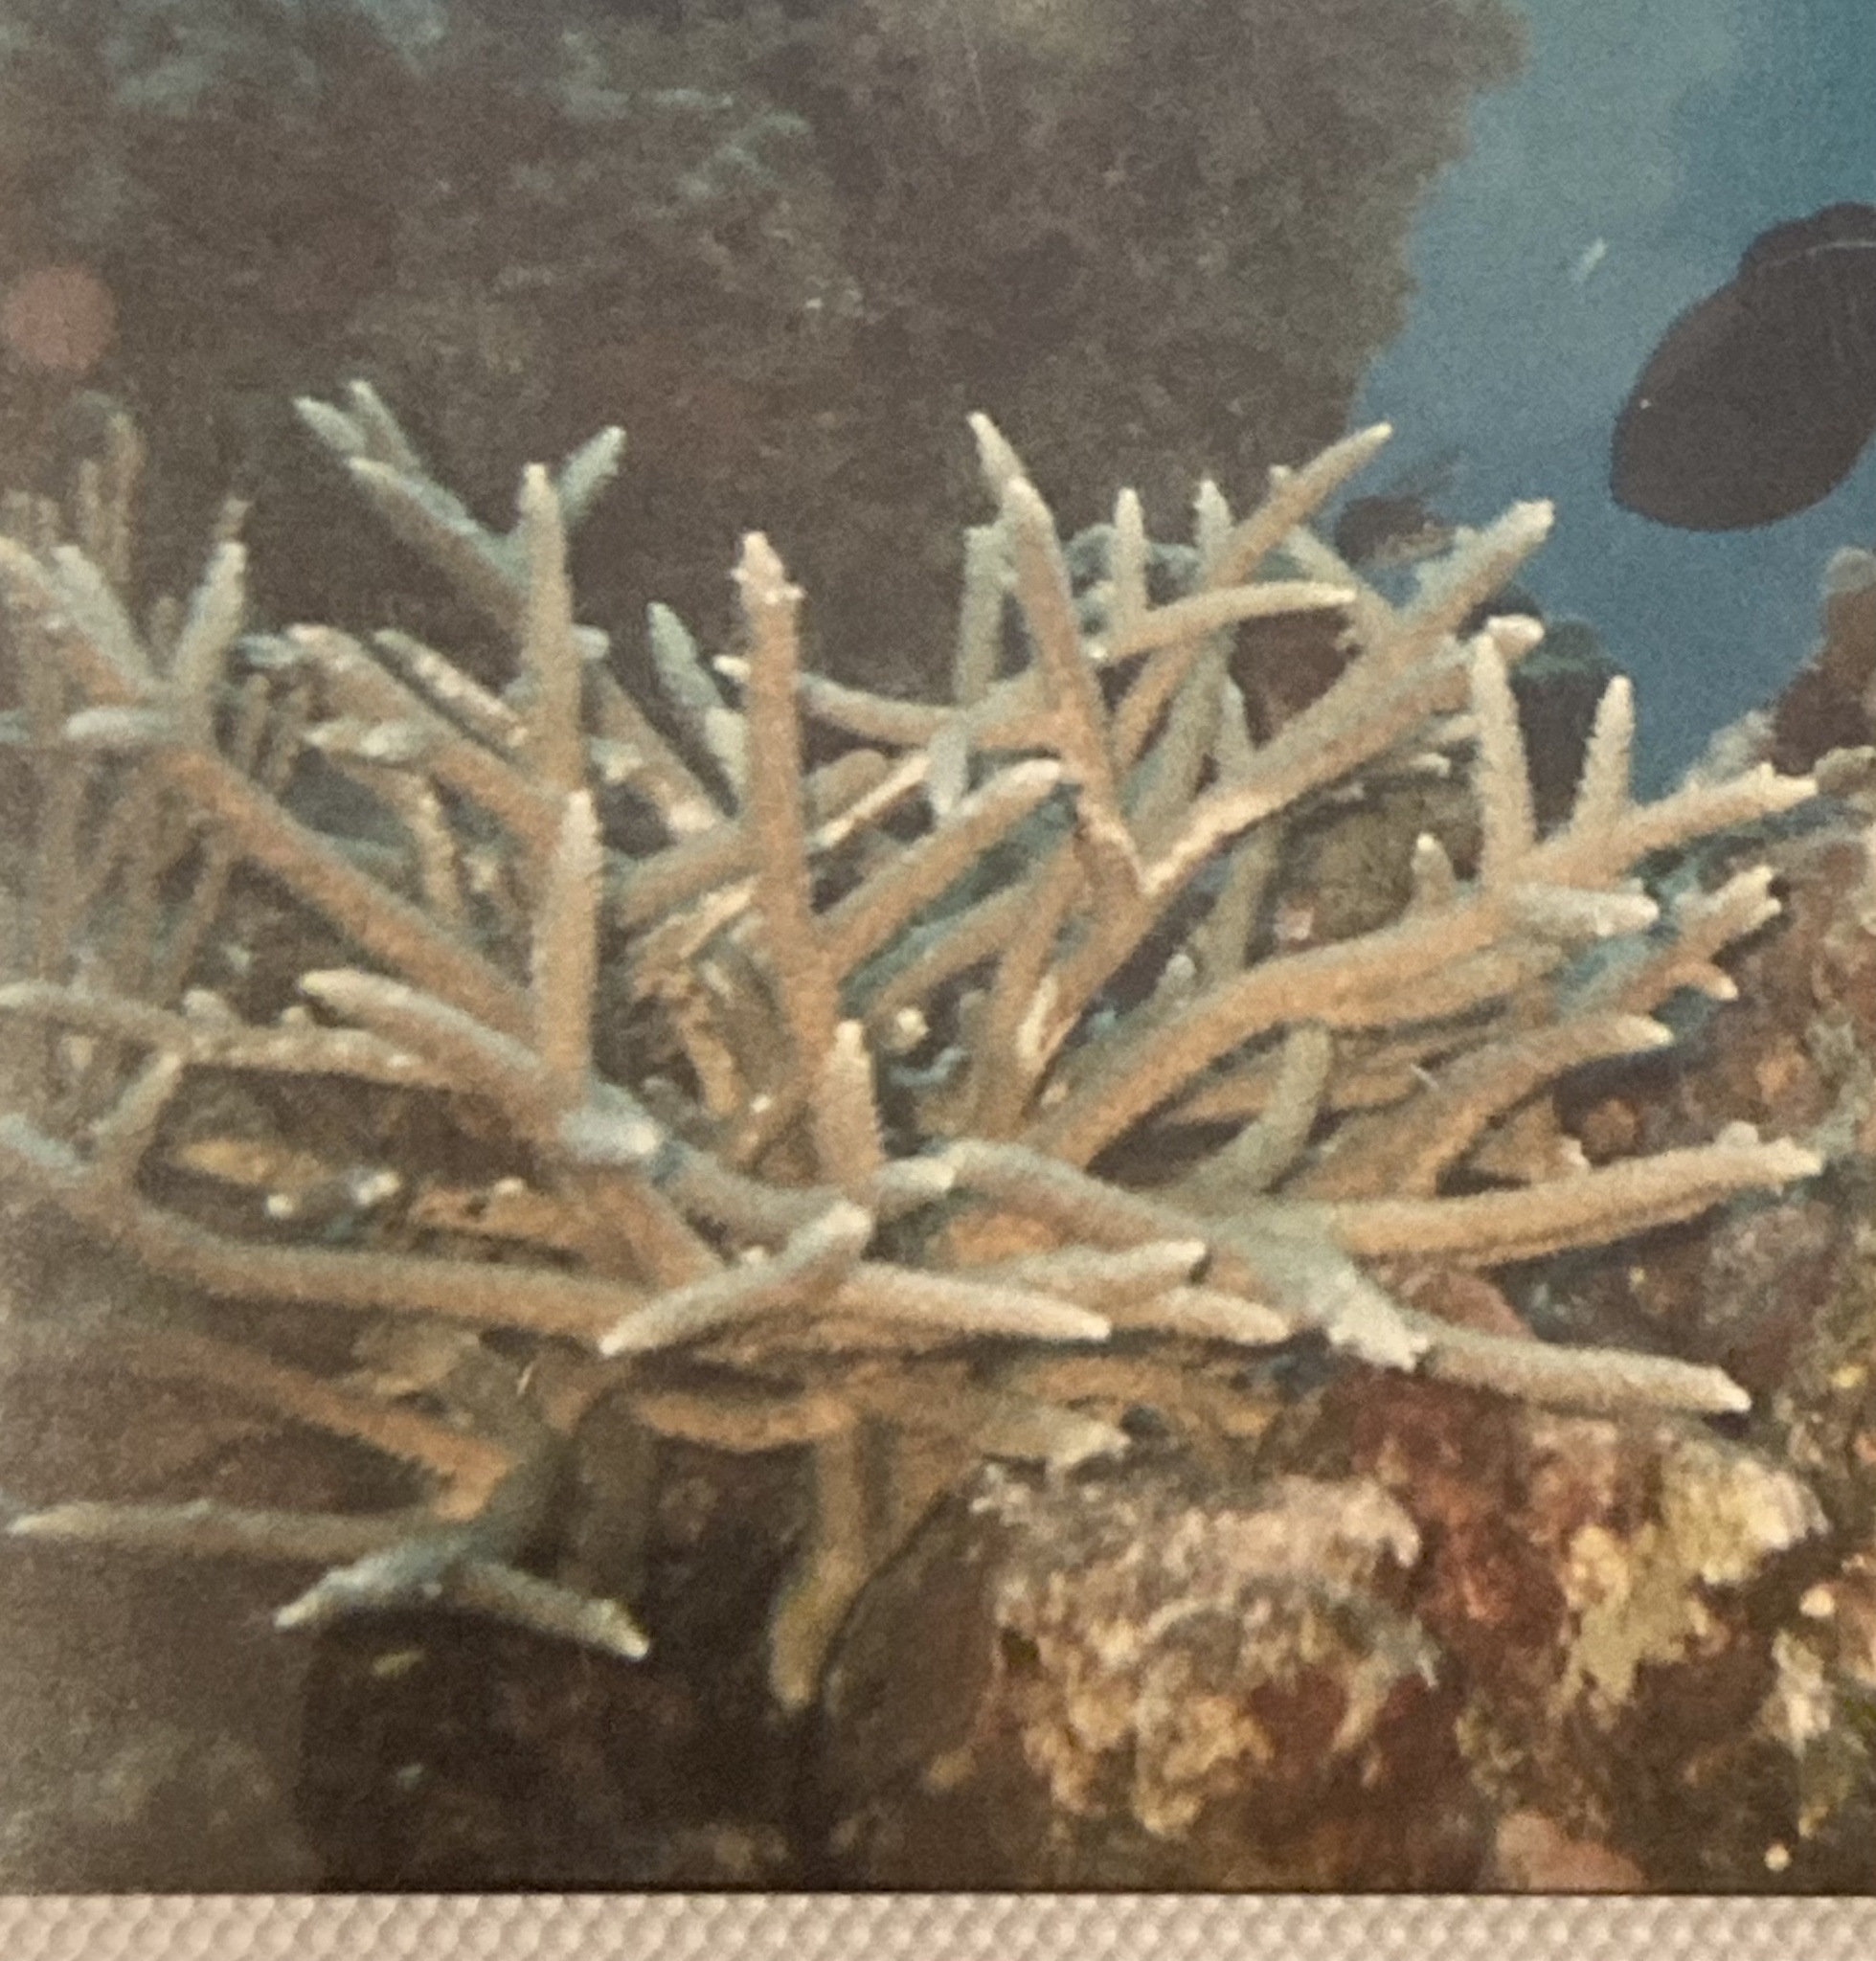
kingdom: Animalia
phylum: Cnidaria
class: Anthozoa
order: Scleractinia
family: Acroporidae
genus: Acropora
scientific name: Acropora cervicornis
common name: Staghorn coral
